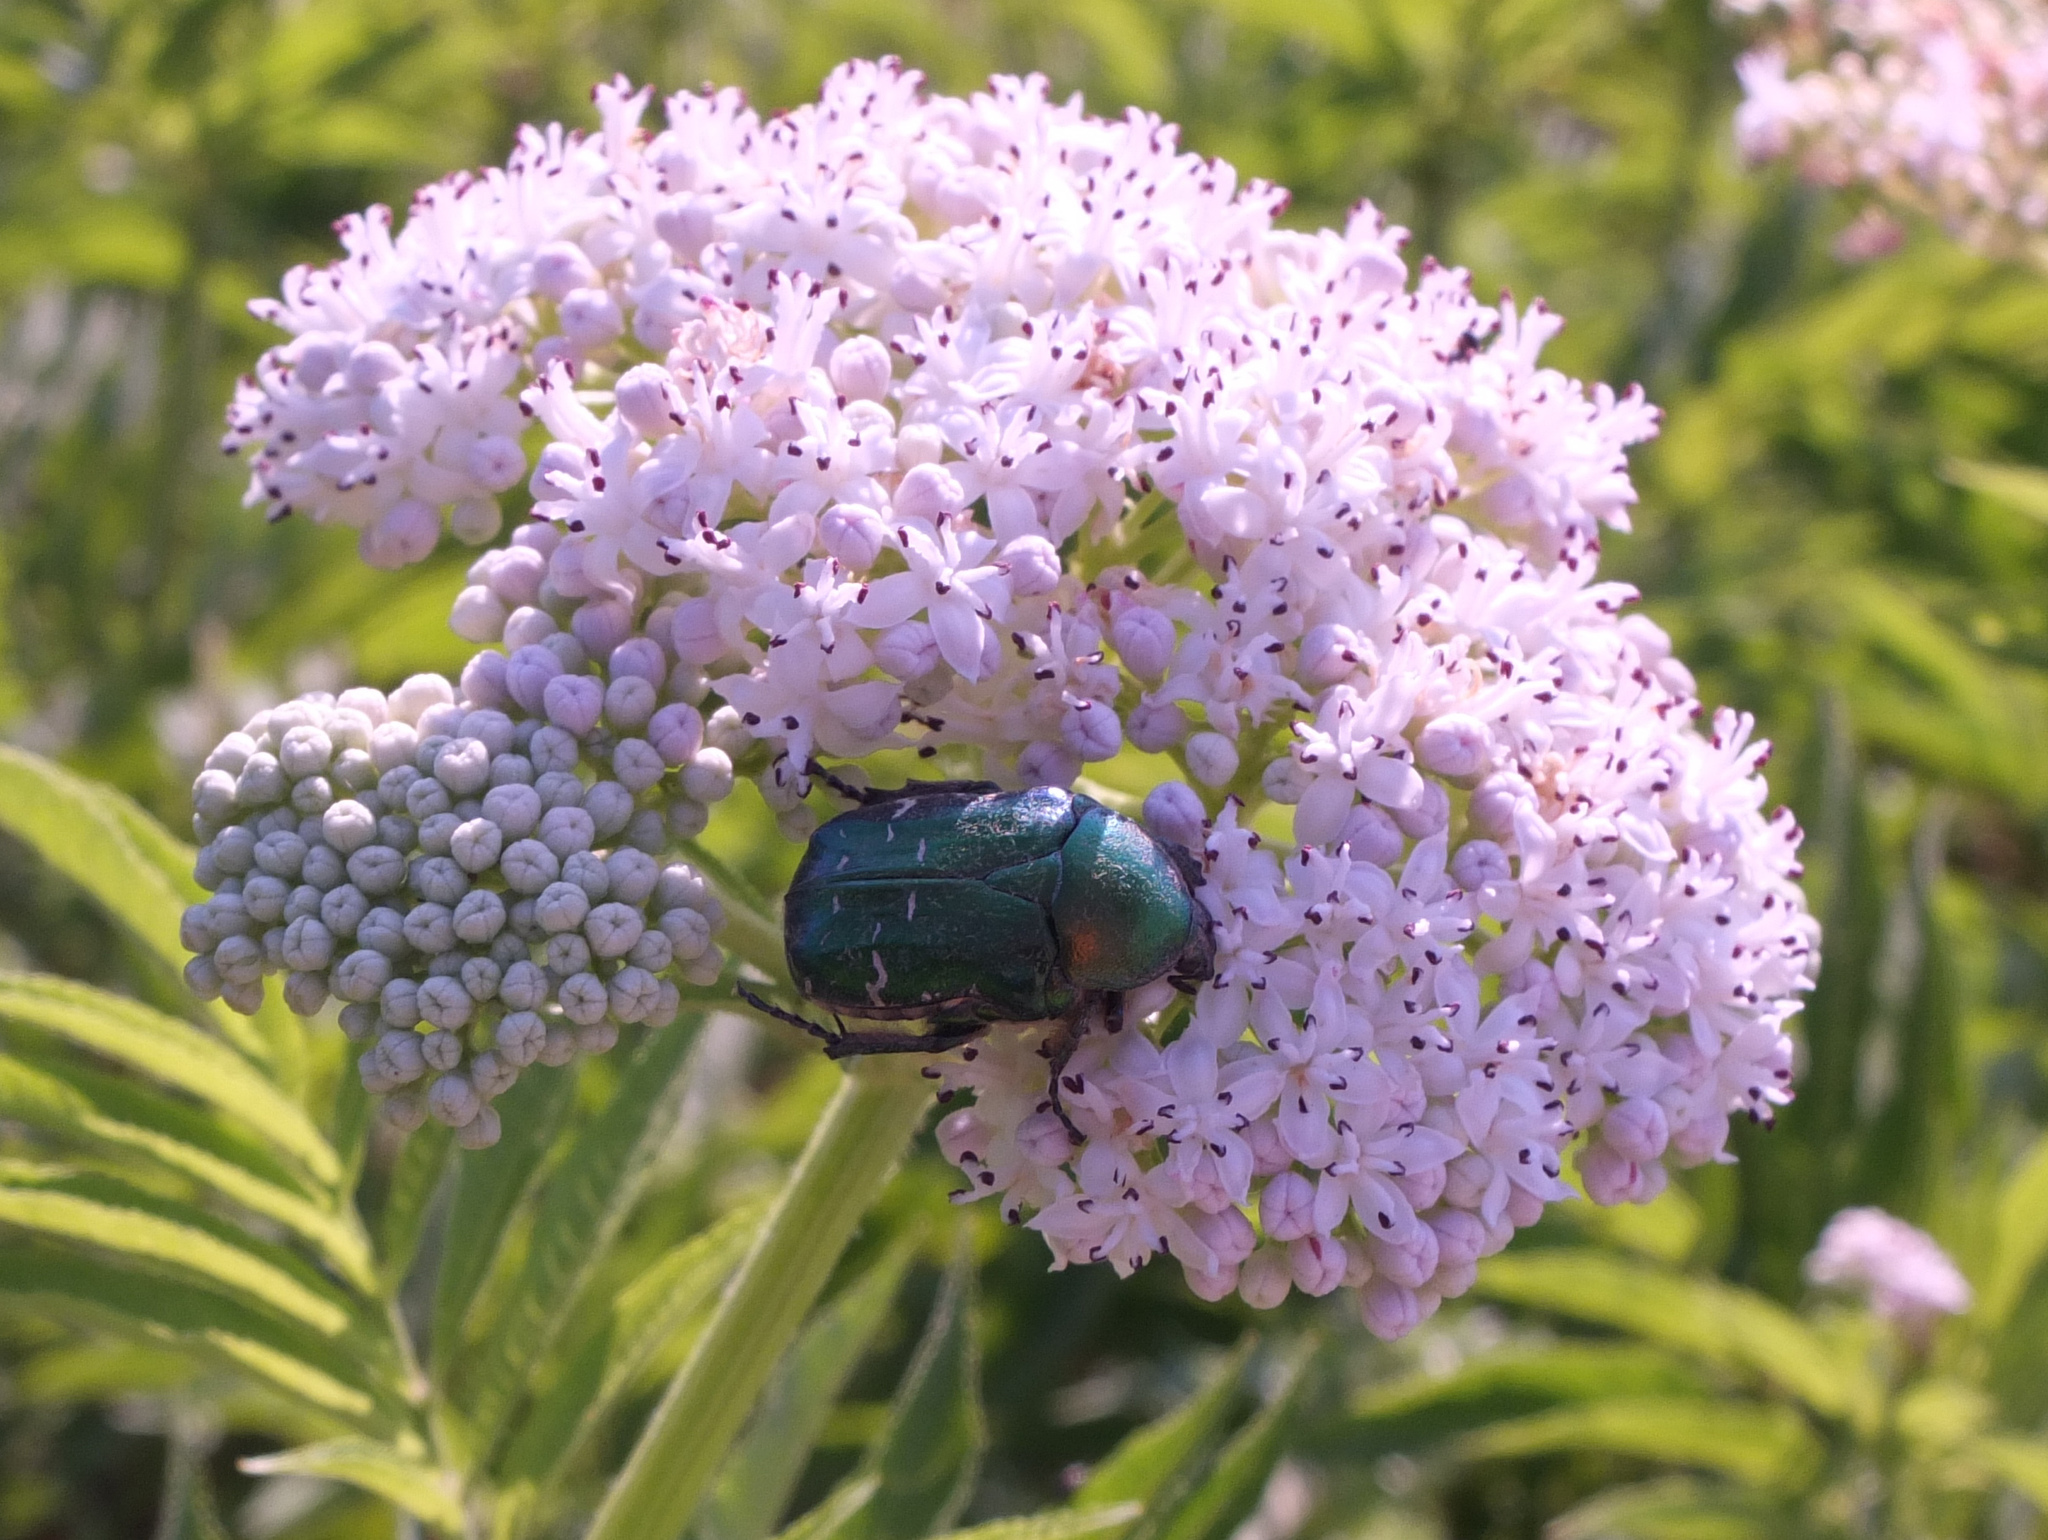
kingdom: Animalia
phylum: Arthropoda
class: Insecta
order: Coleoptera
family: Scarabaeidae
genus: Cetonia
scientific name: Cetonia aurata
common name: Rose chafer
